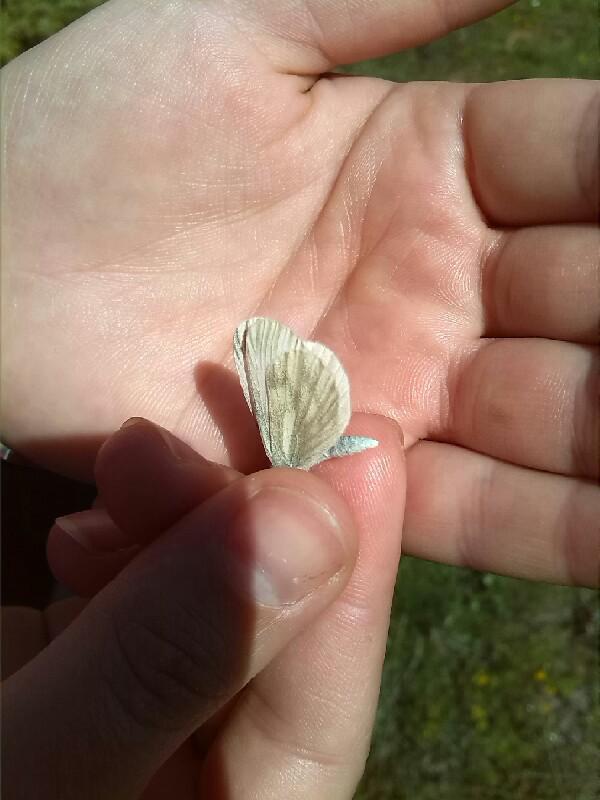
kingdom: Animalia
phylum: Arthropoda
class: Insecta
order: Lepidoptera
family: Pieridae
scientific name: Pieridae
